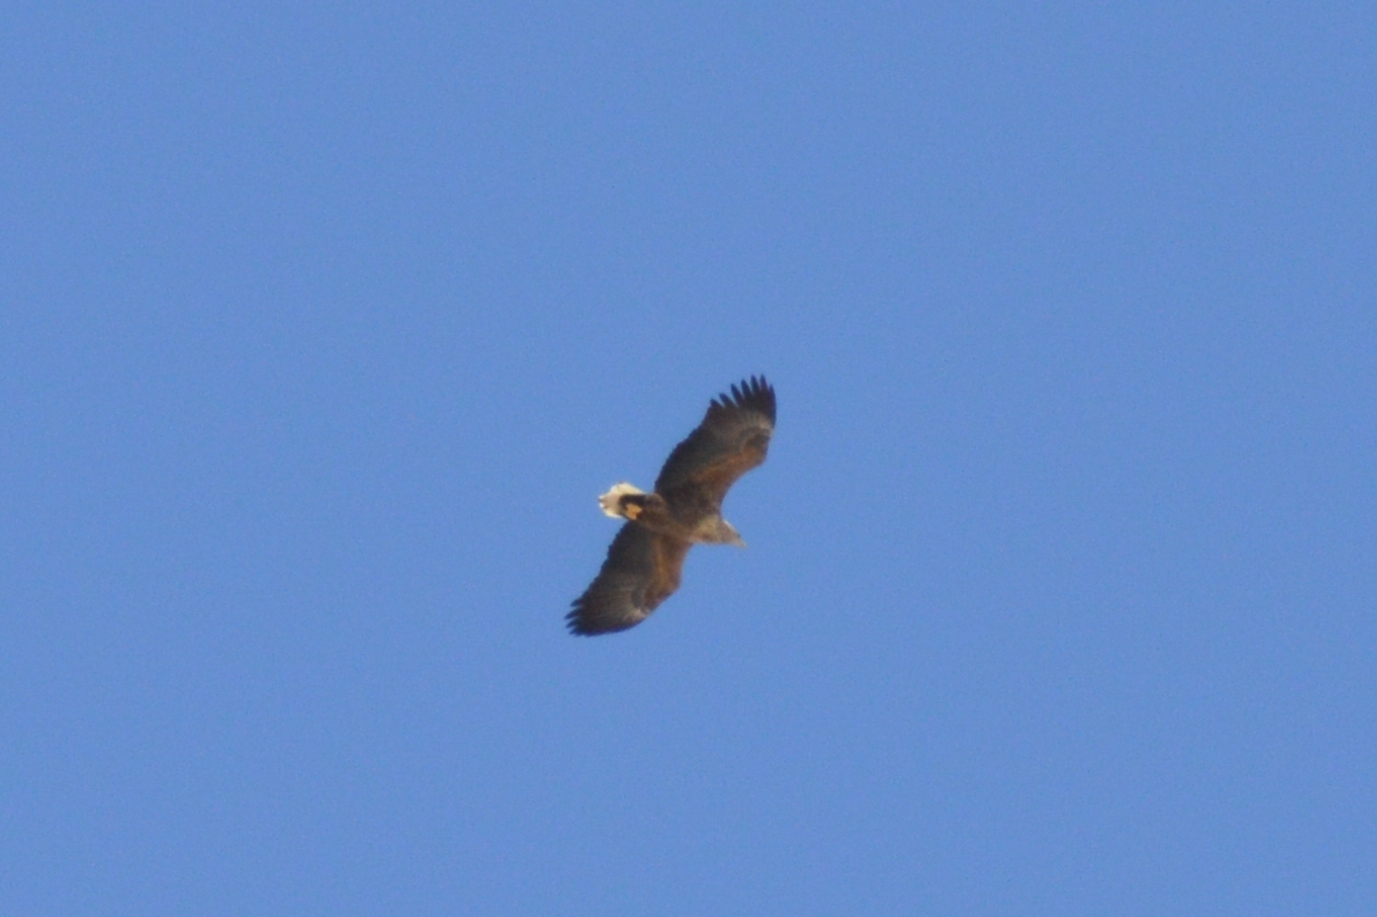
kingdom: Animalia
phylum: Chordata
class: Aves
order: Accipitriformes
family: Accipitridae
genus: Haliaeetus
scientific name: Haliaeetus albicilla
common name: White-tailed eagle
